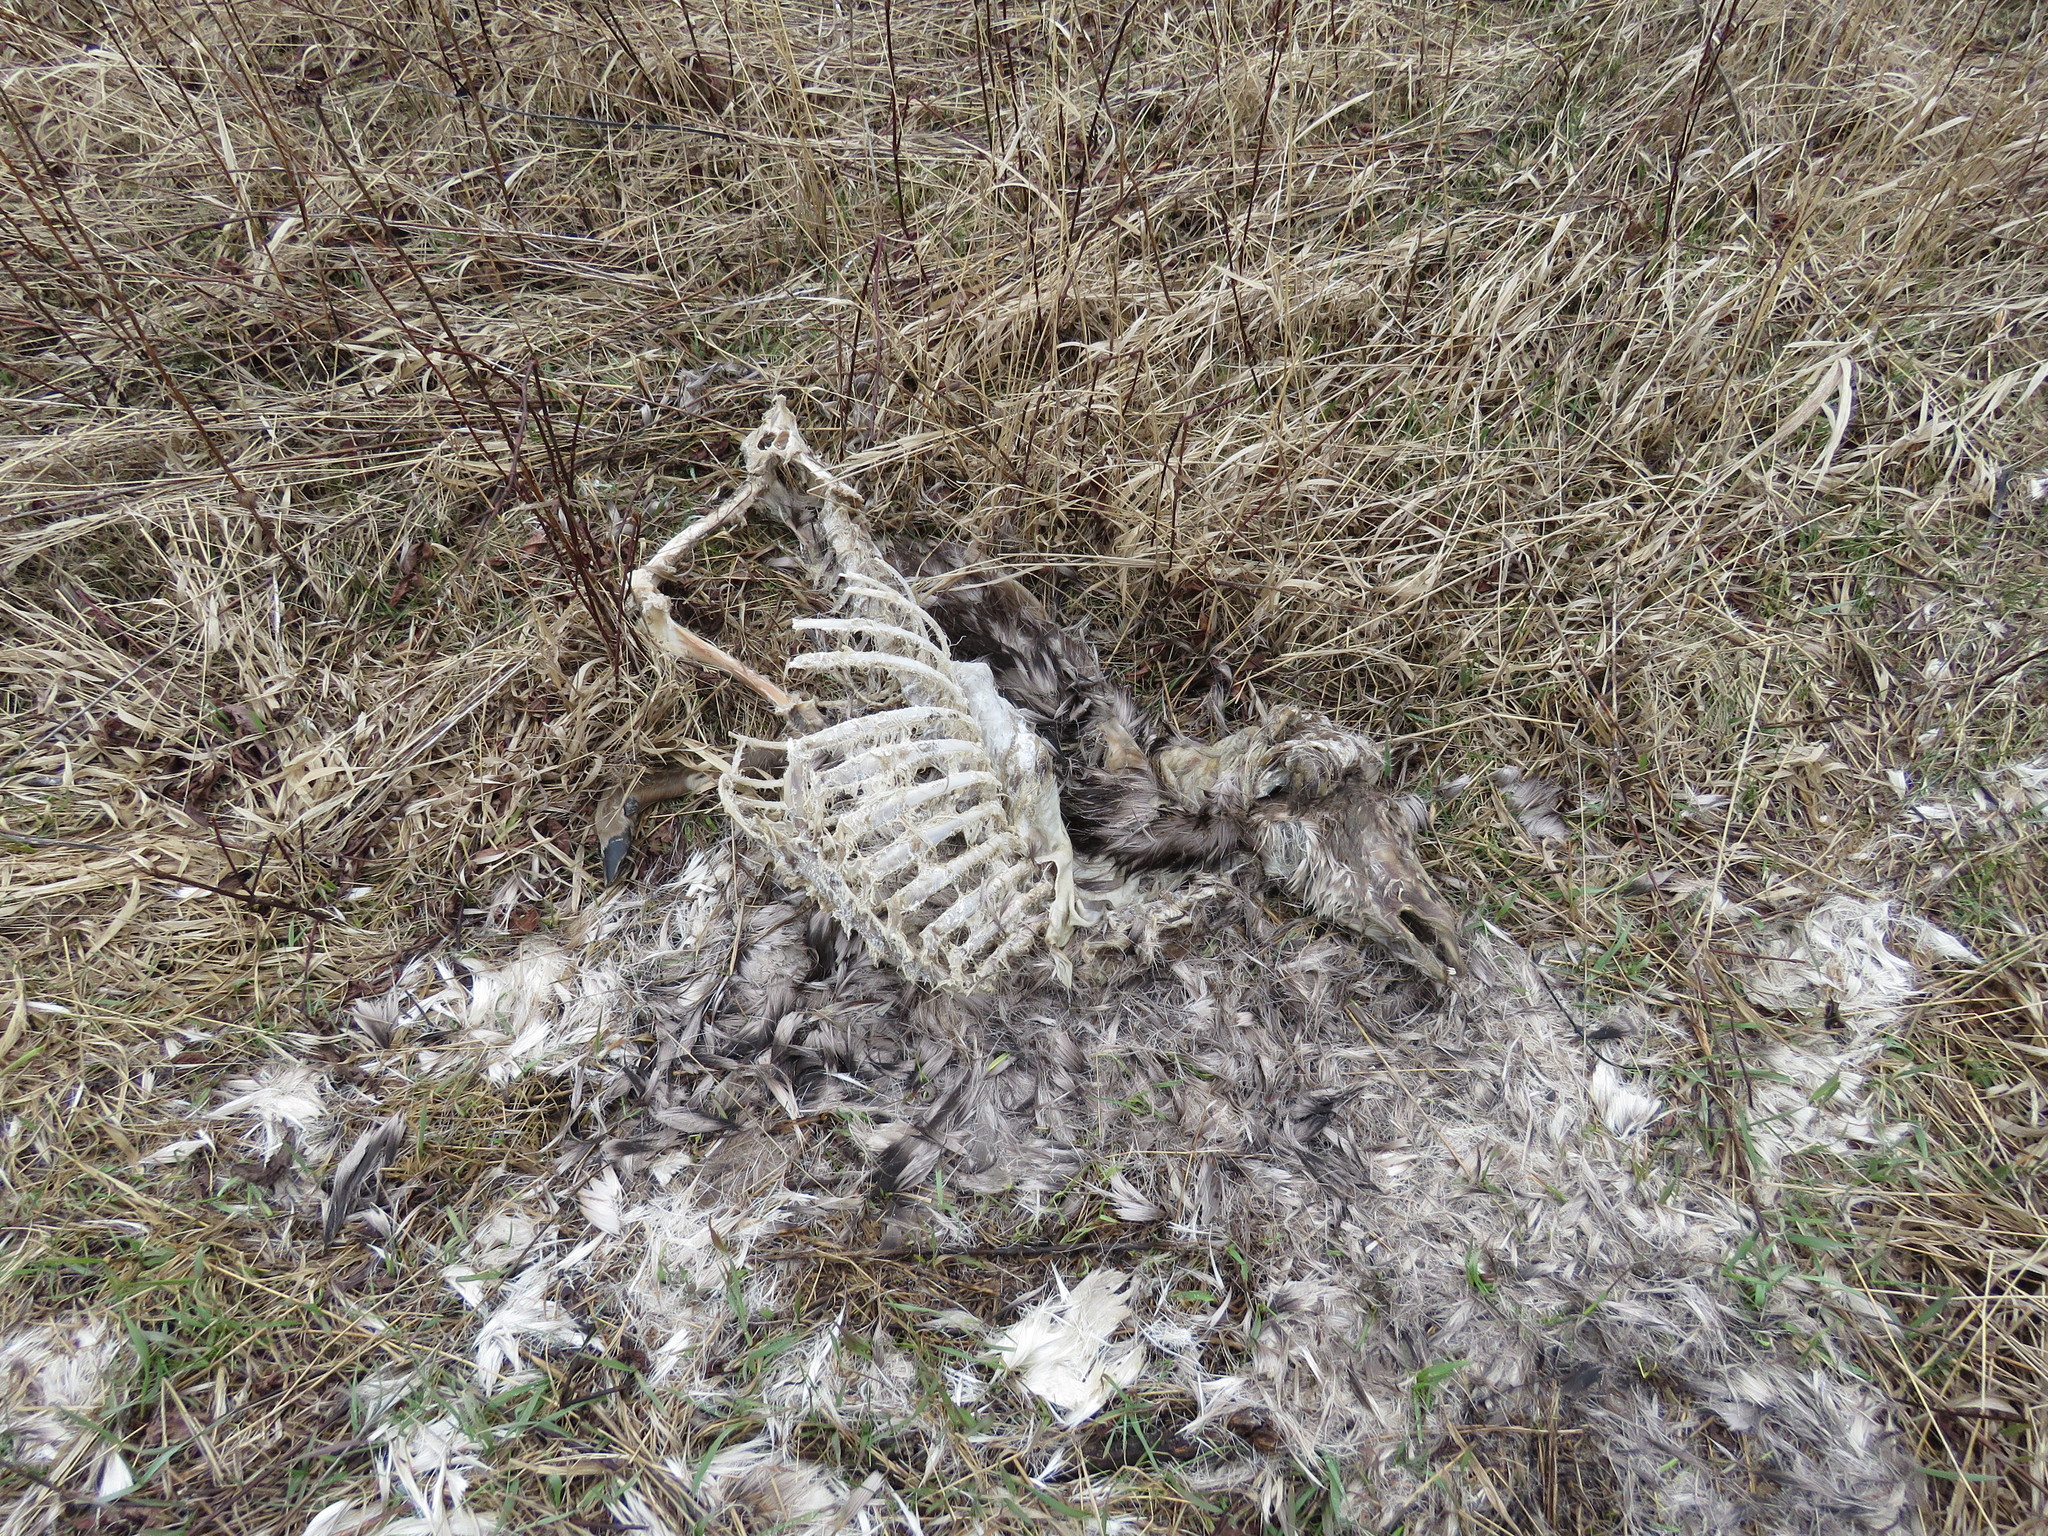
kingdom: Animalia
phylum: Chordata
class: Mammalia
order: Artiodactyla
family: Cervidae
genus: Odocoileus
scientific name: Odocoileus virginianus
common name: White-tailed deer
